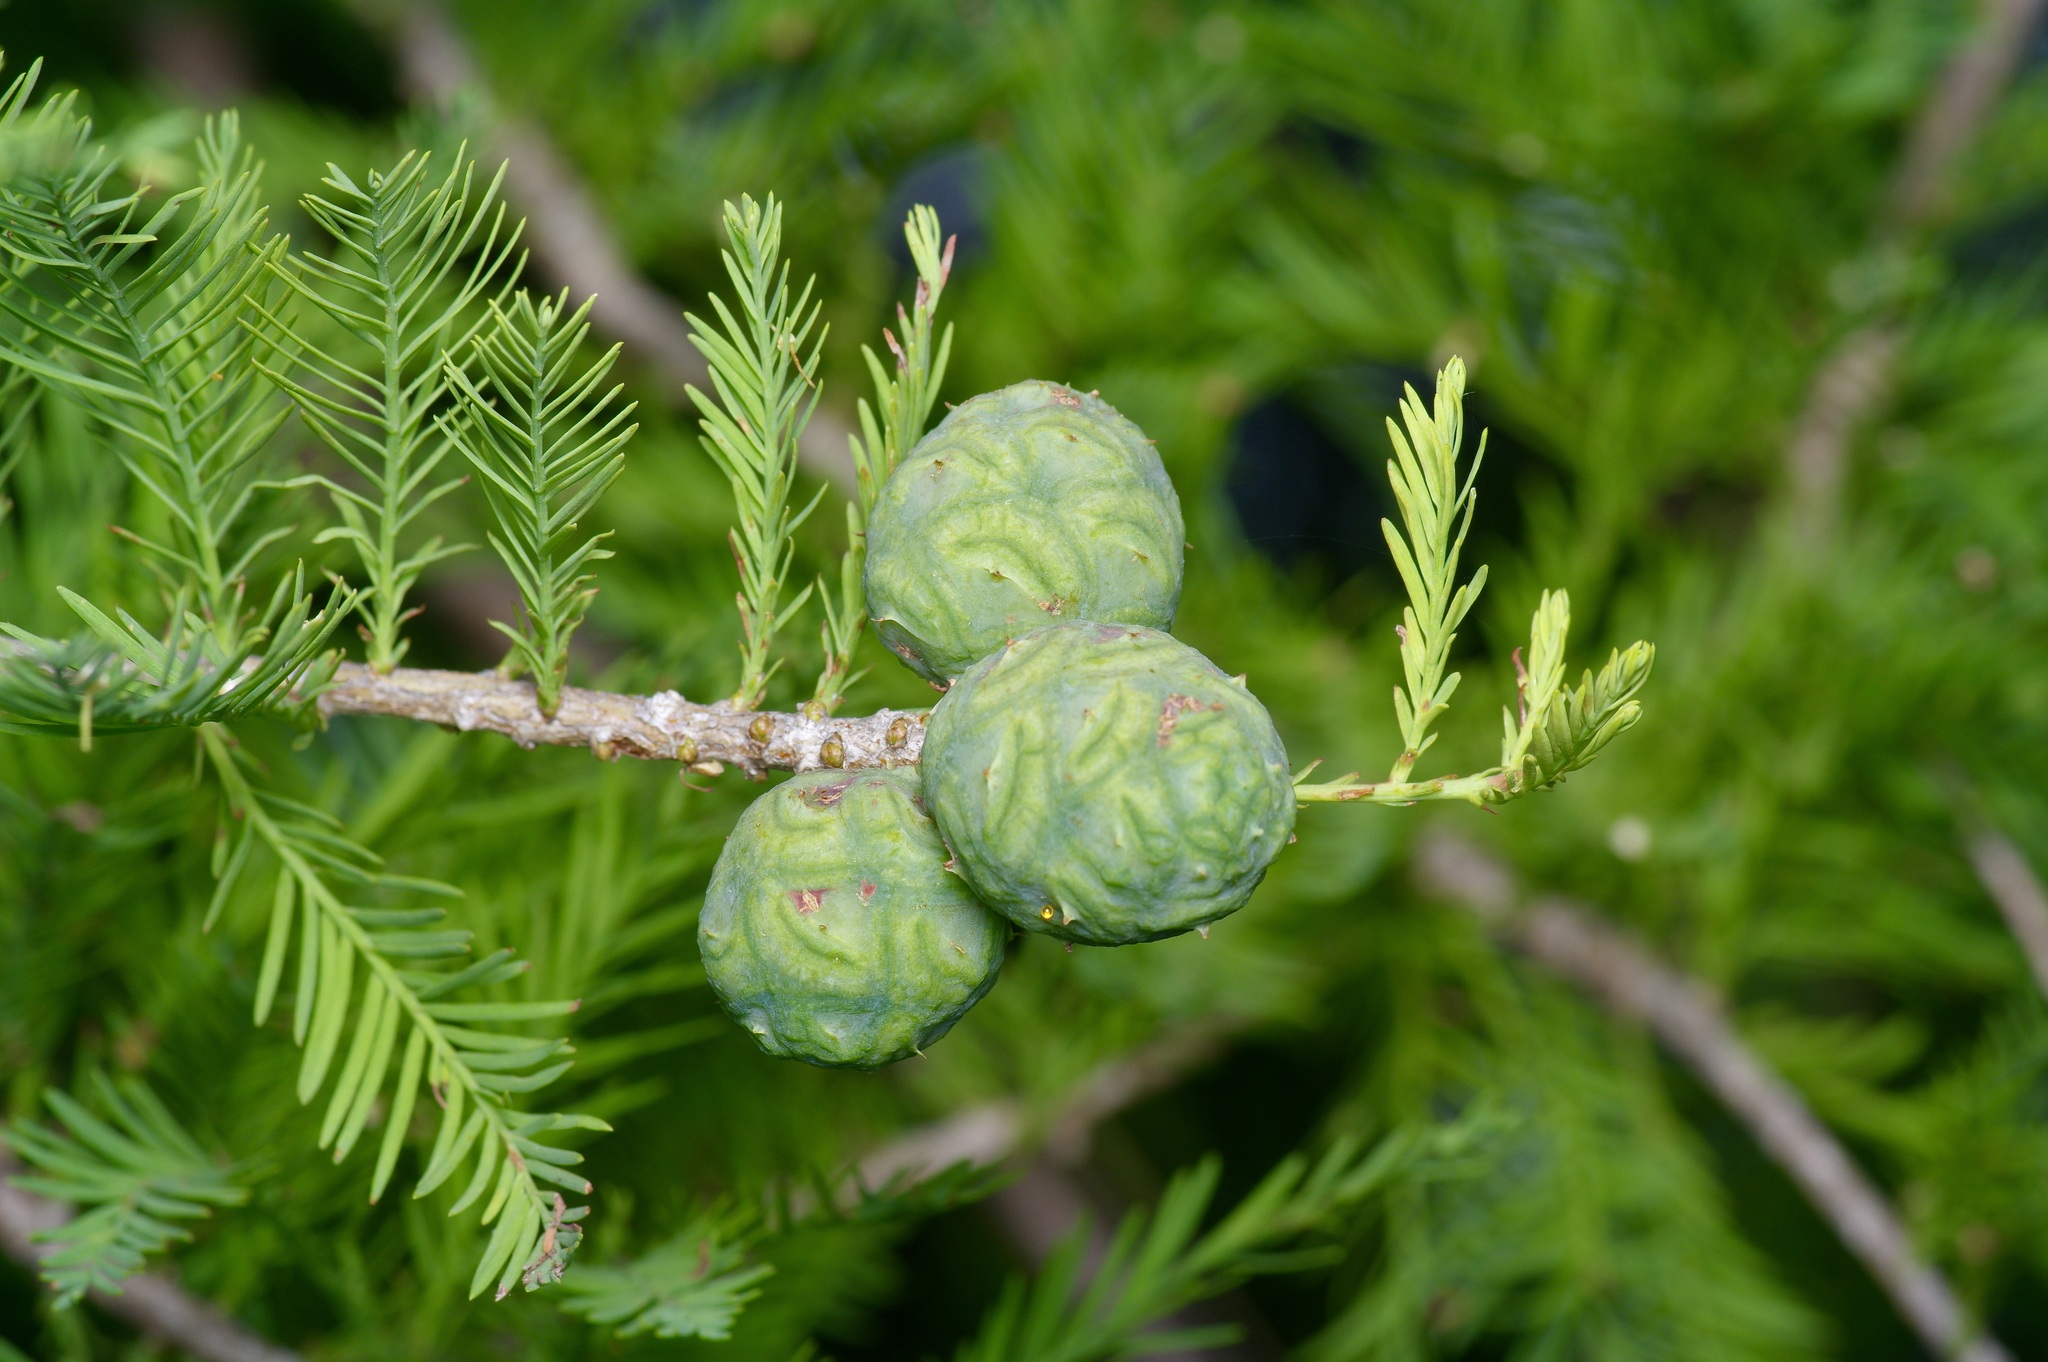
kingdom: Plantae
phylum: Tracheophyta
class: Pinopsida
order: Pinales
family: Cupressaceae
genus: Taxodium
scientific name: Taxodium distichum
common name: Bald cypress
